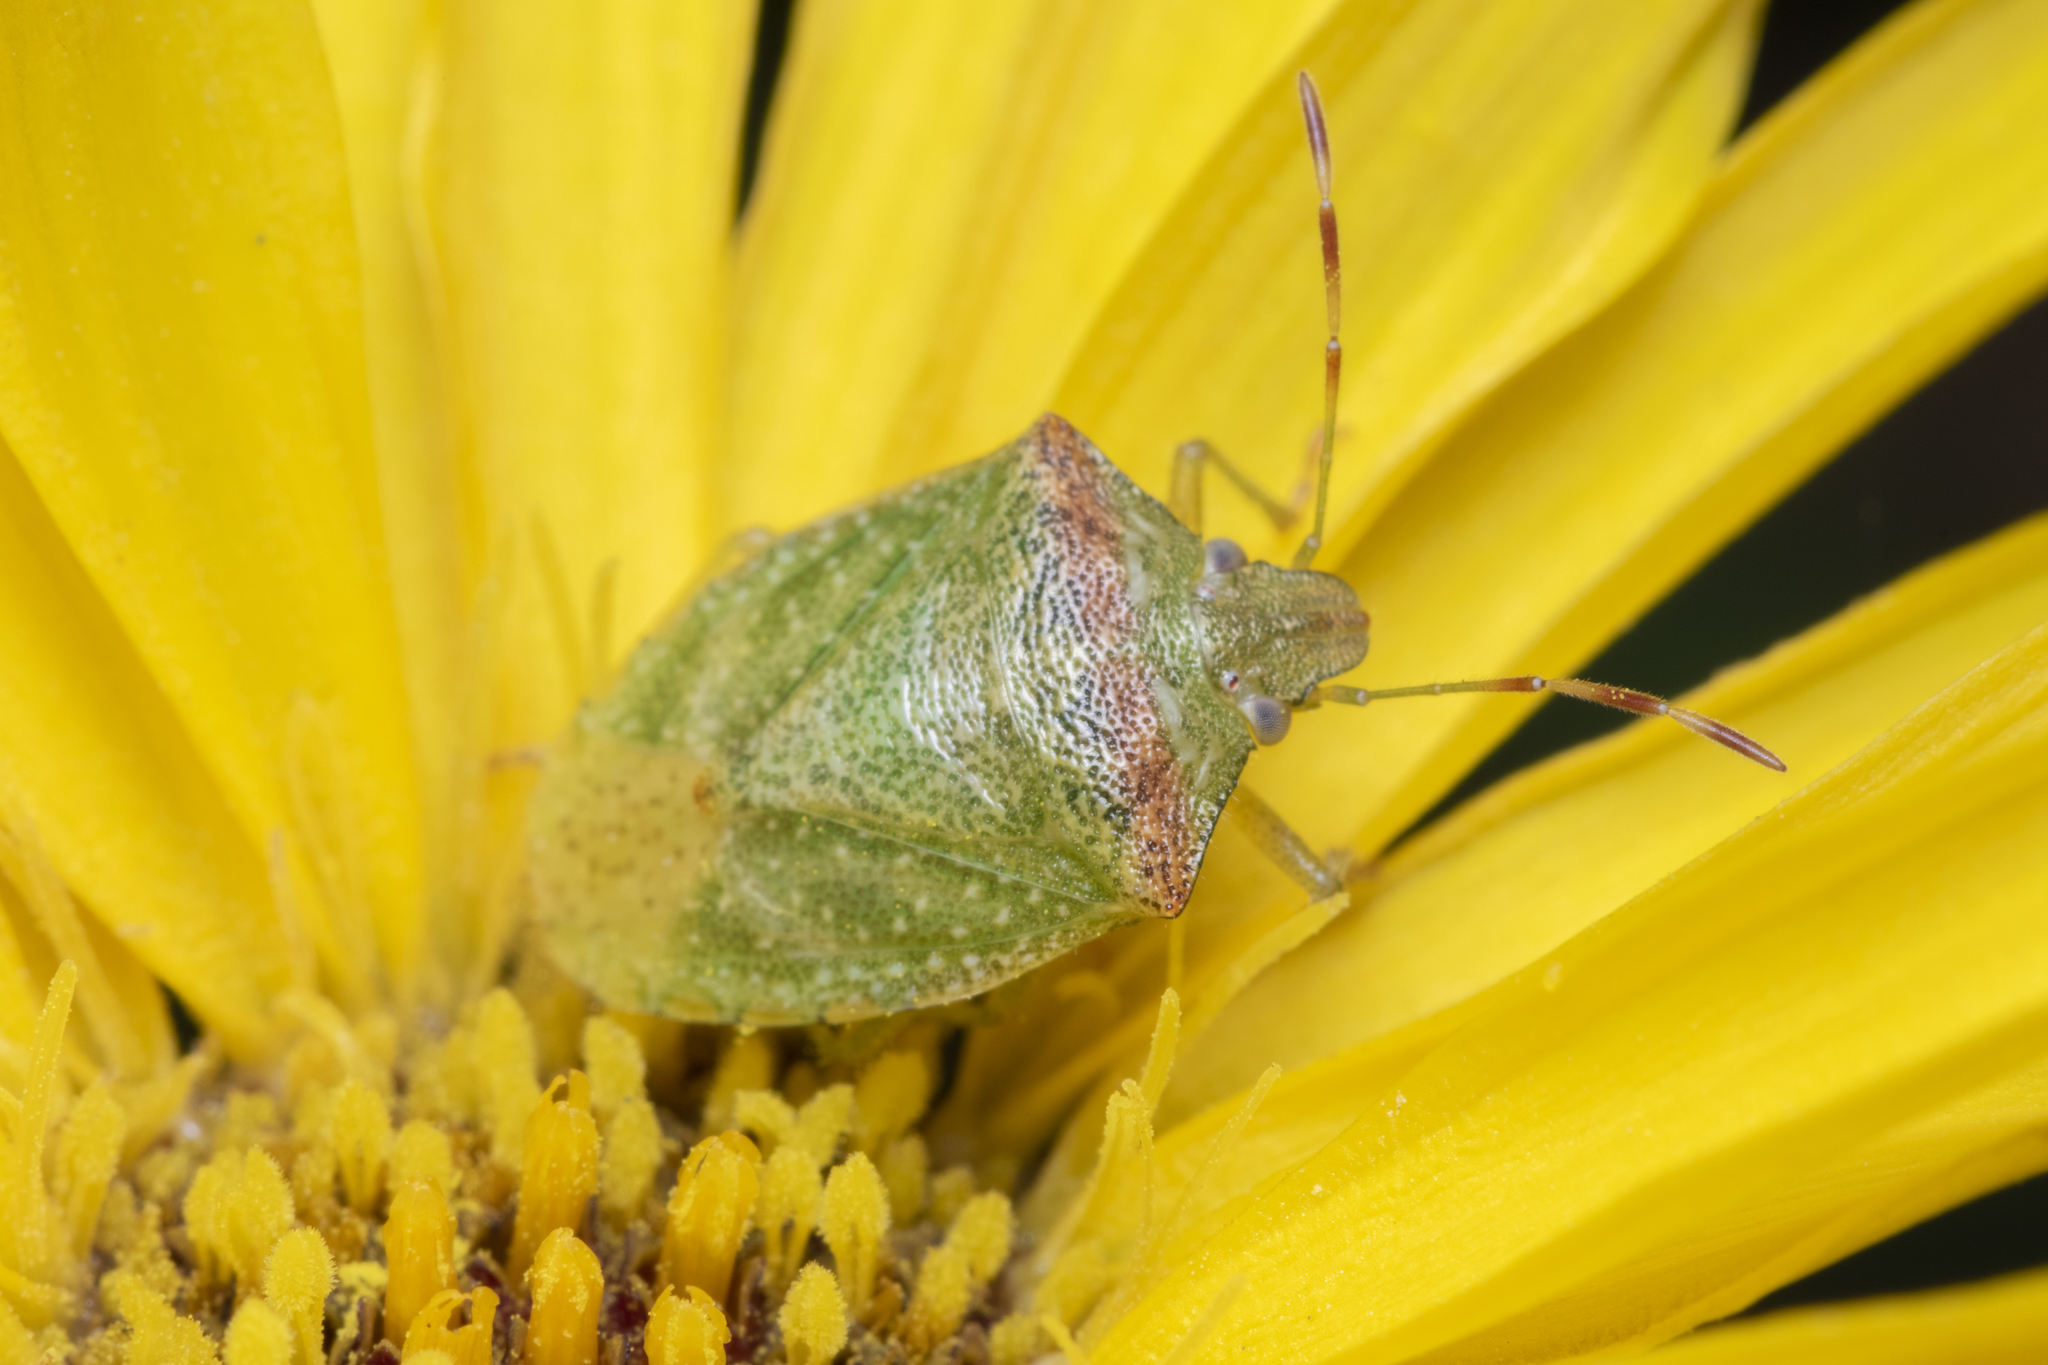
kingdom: Animalia
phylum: Arthropoda
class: Insecta
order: Hemiptera
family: Pentatomidae
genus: Thyanta
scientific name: Thyanta
